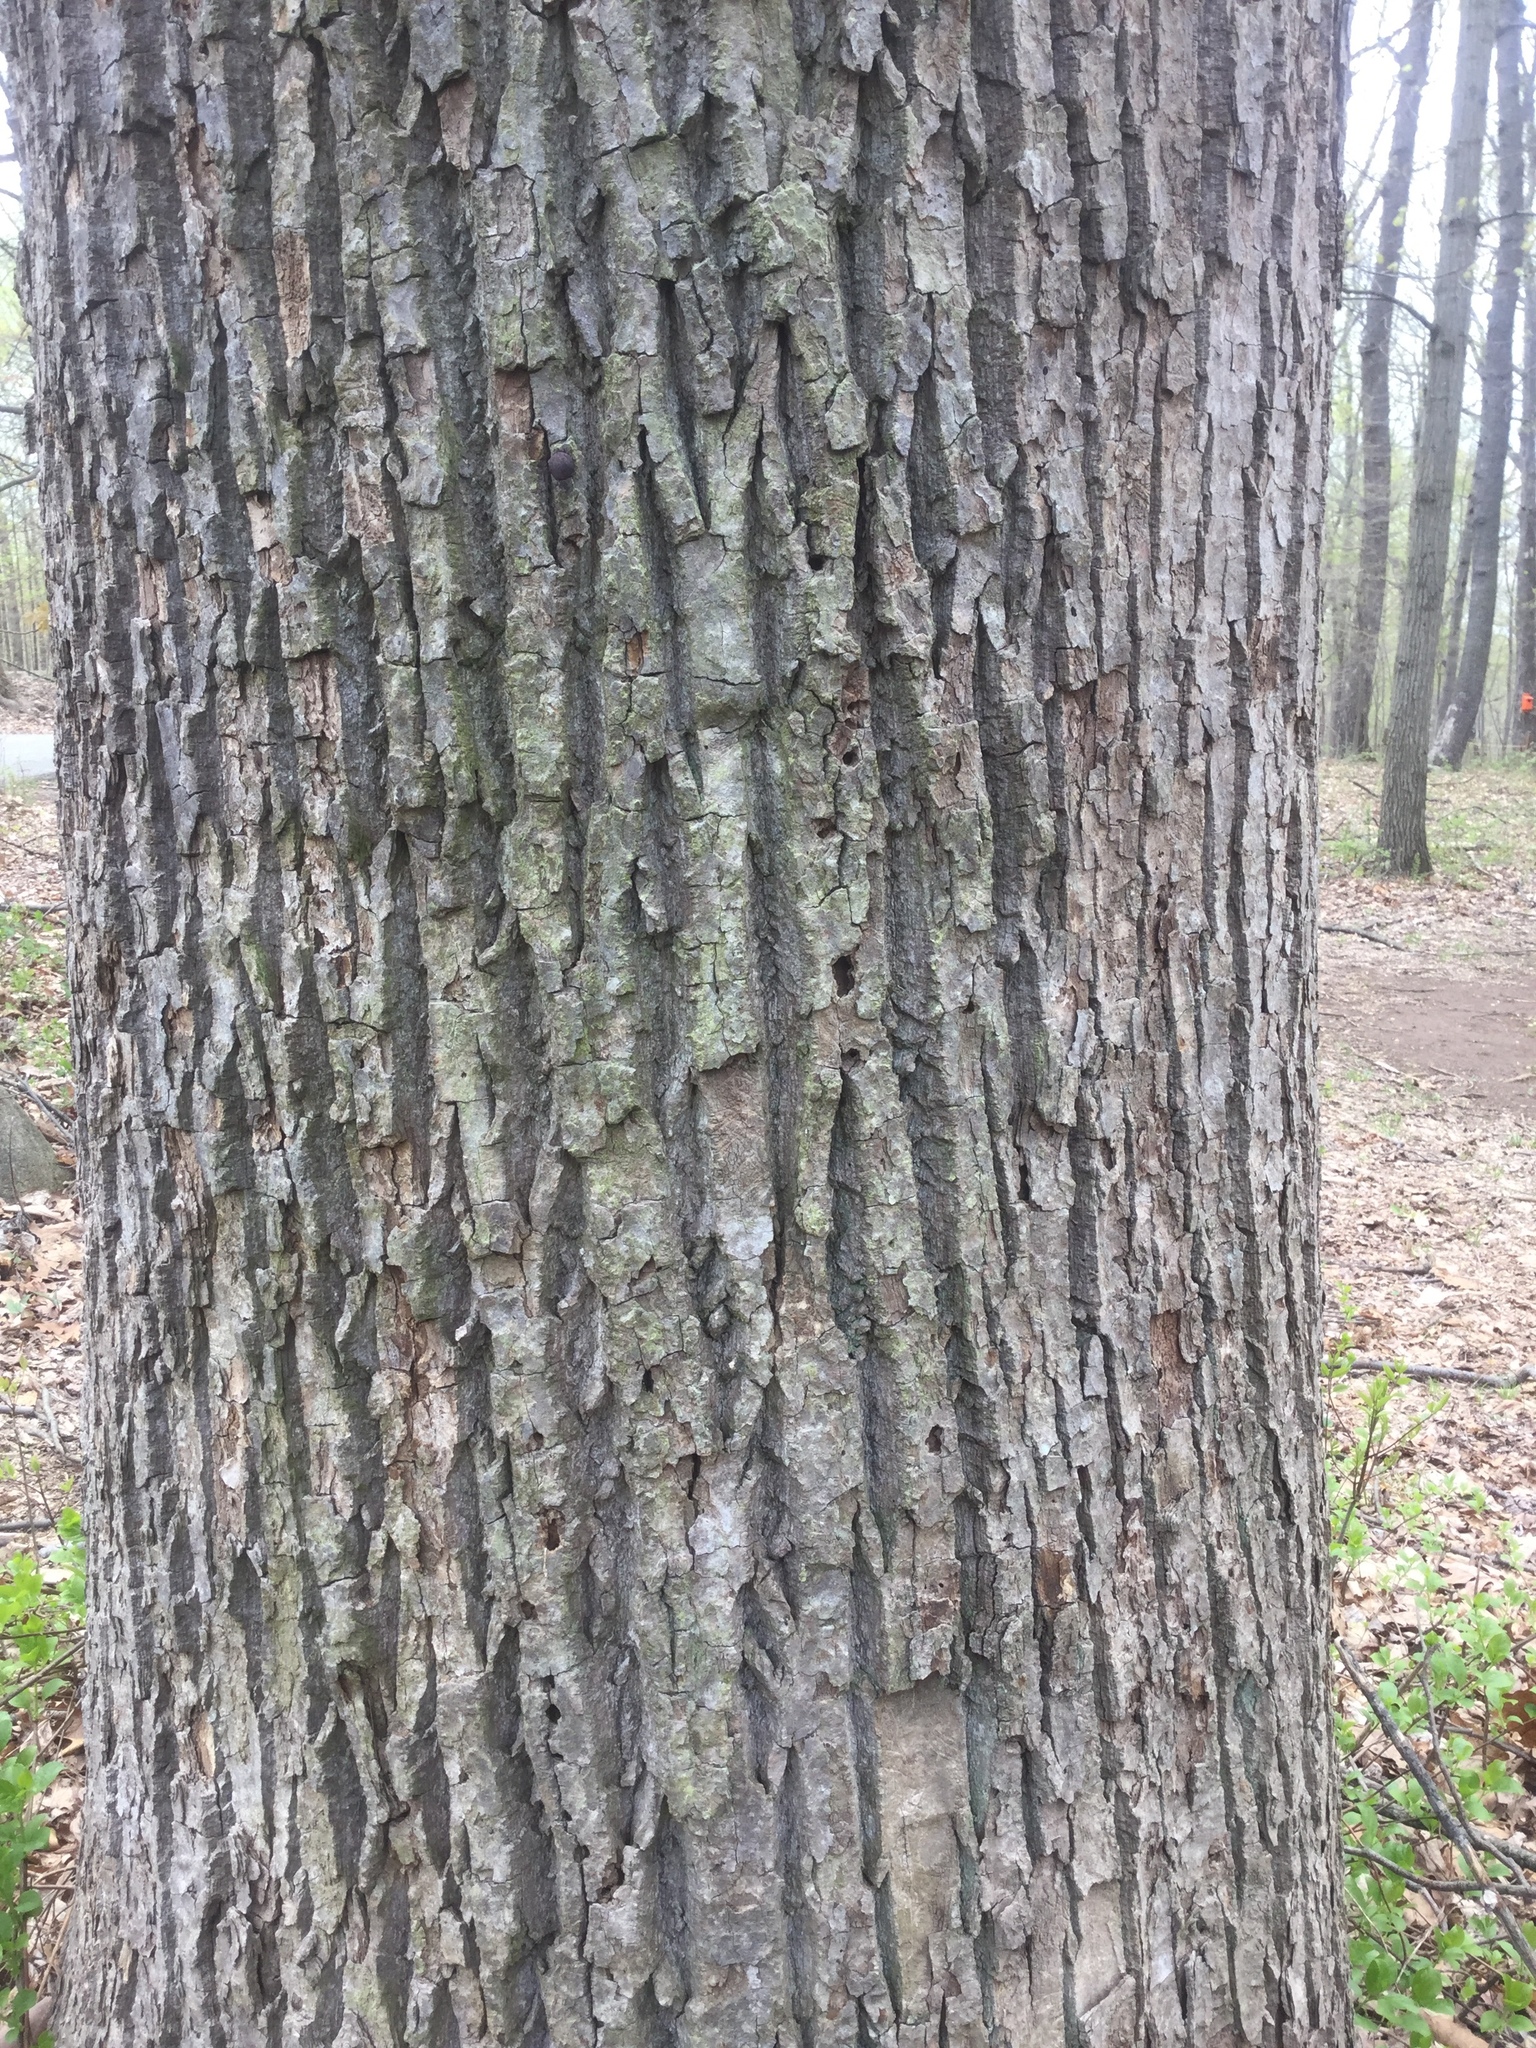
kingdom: Plantae
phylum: Tracheophyta
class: Magnoliopsida
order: Magnoliales
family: Magnoliaceae
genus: Liriodendron
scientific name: Liriodendron tulipifera
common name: Tulip tree
